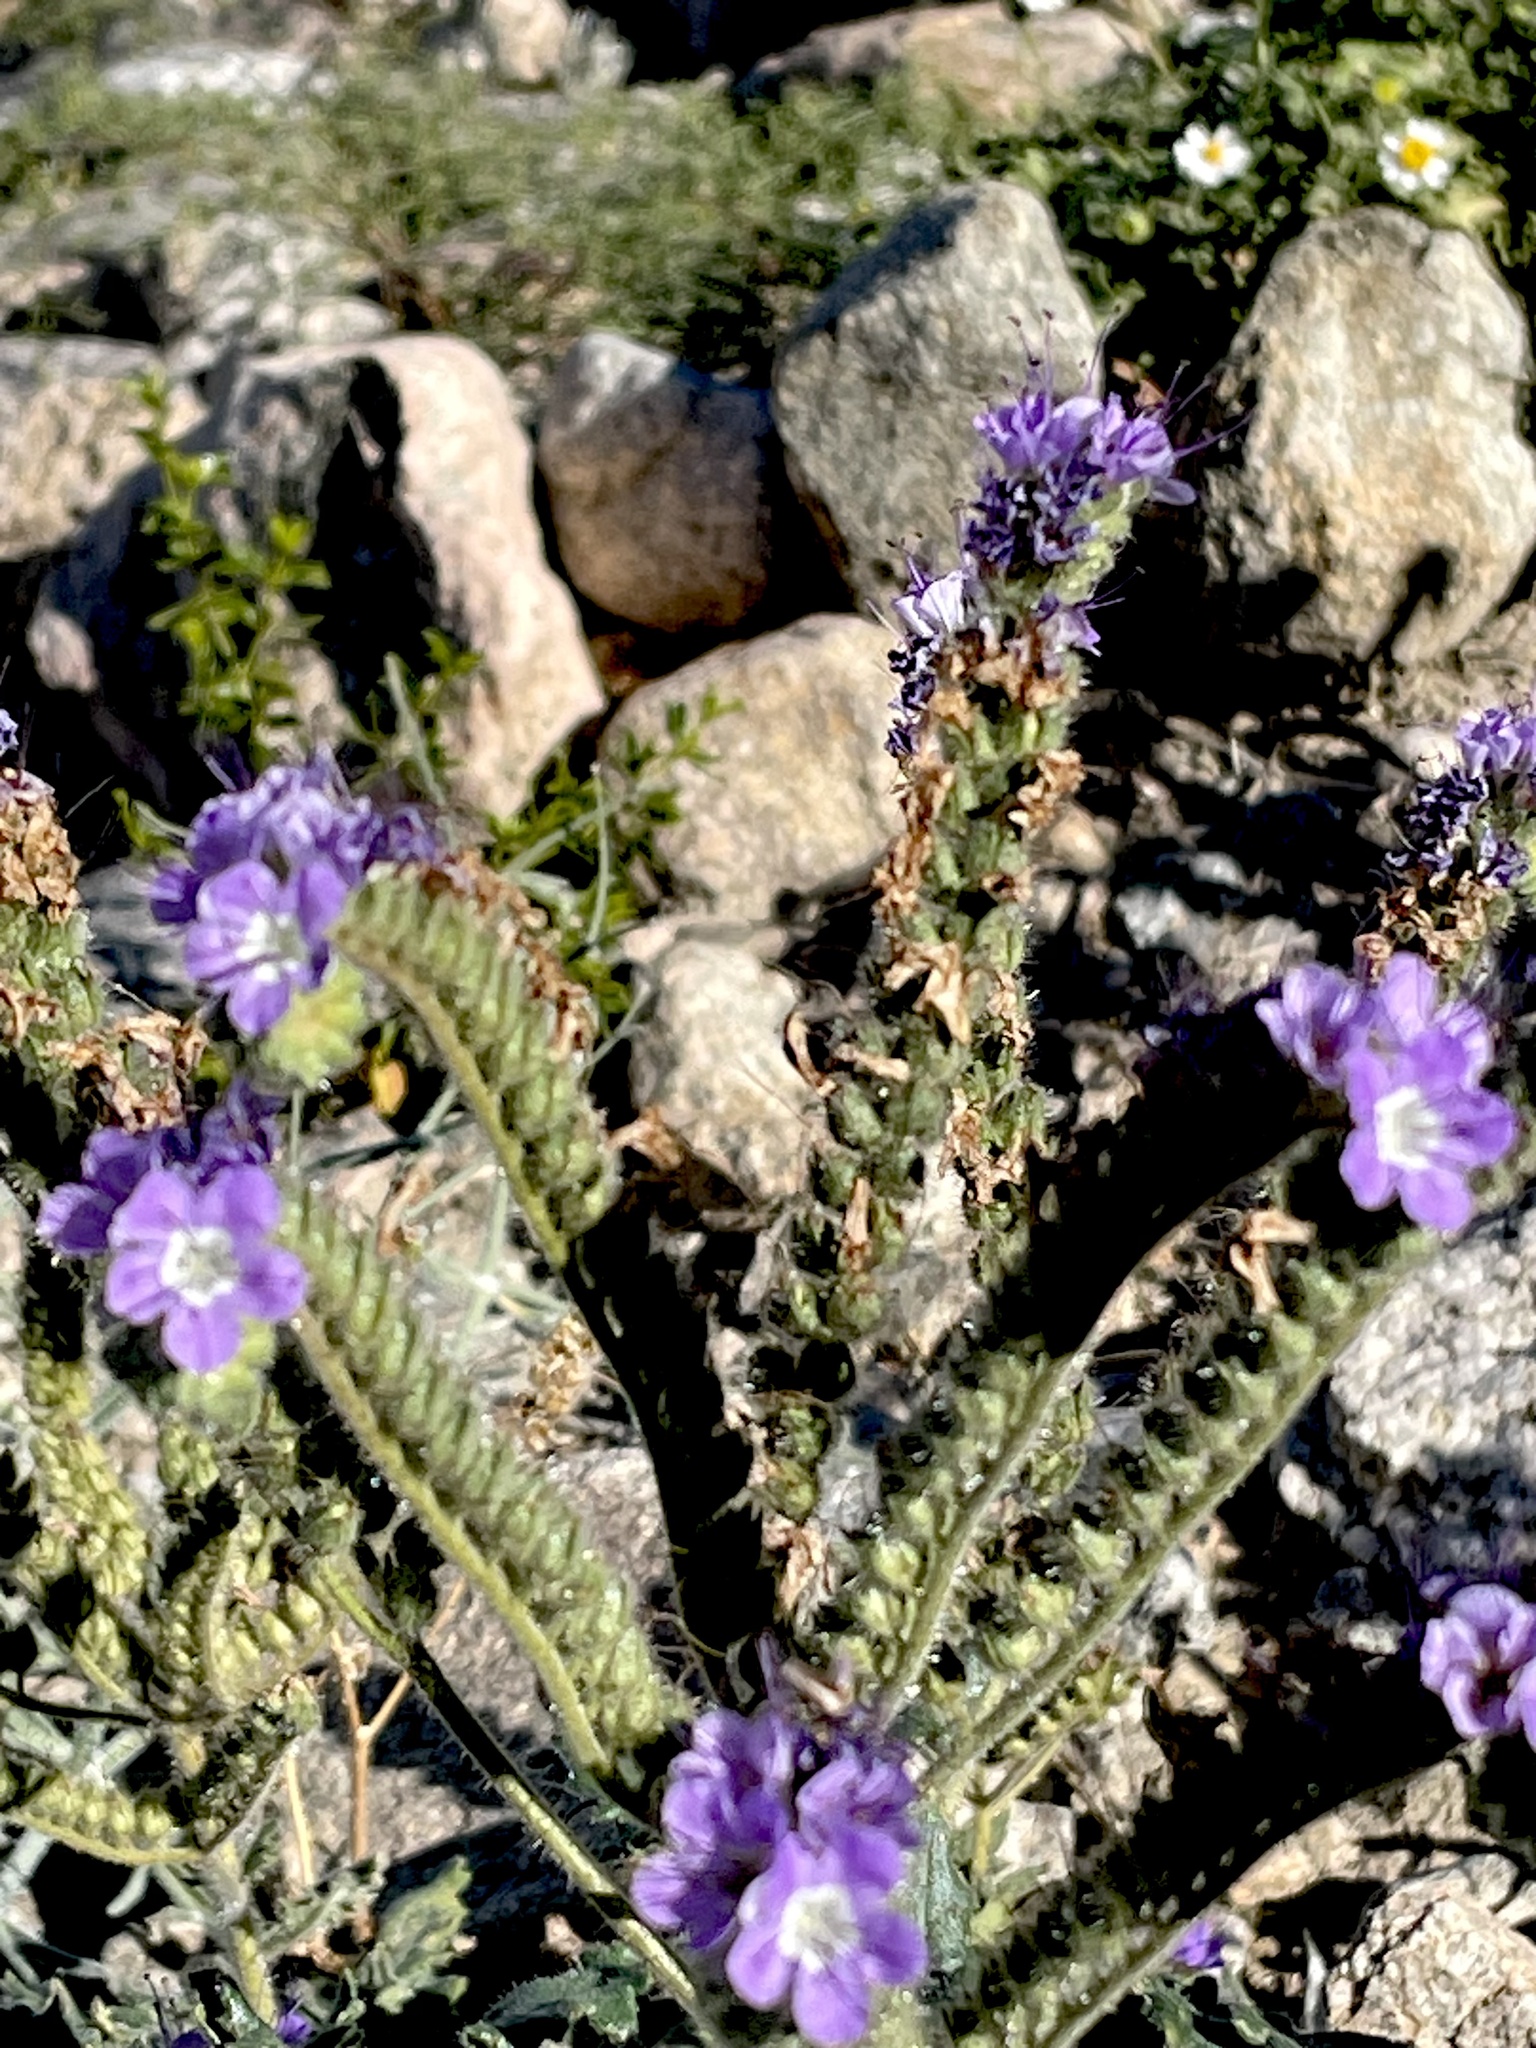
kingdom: Plantae
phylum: Tracheophyta
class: Magnoliopsida
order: Boraginales
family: Hydrophyllaceae
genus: Phacelia
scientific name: Phacelia crenulata
